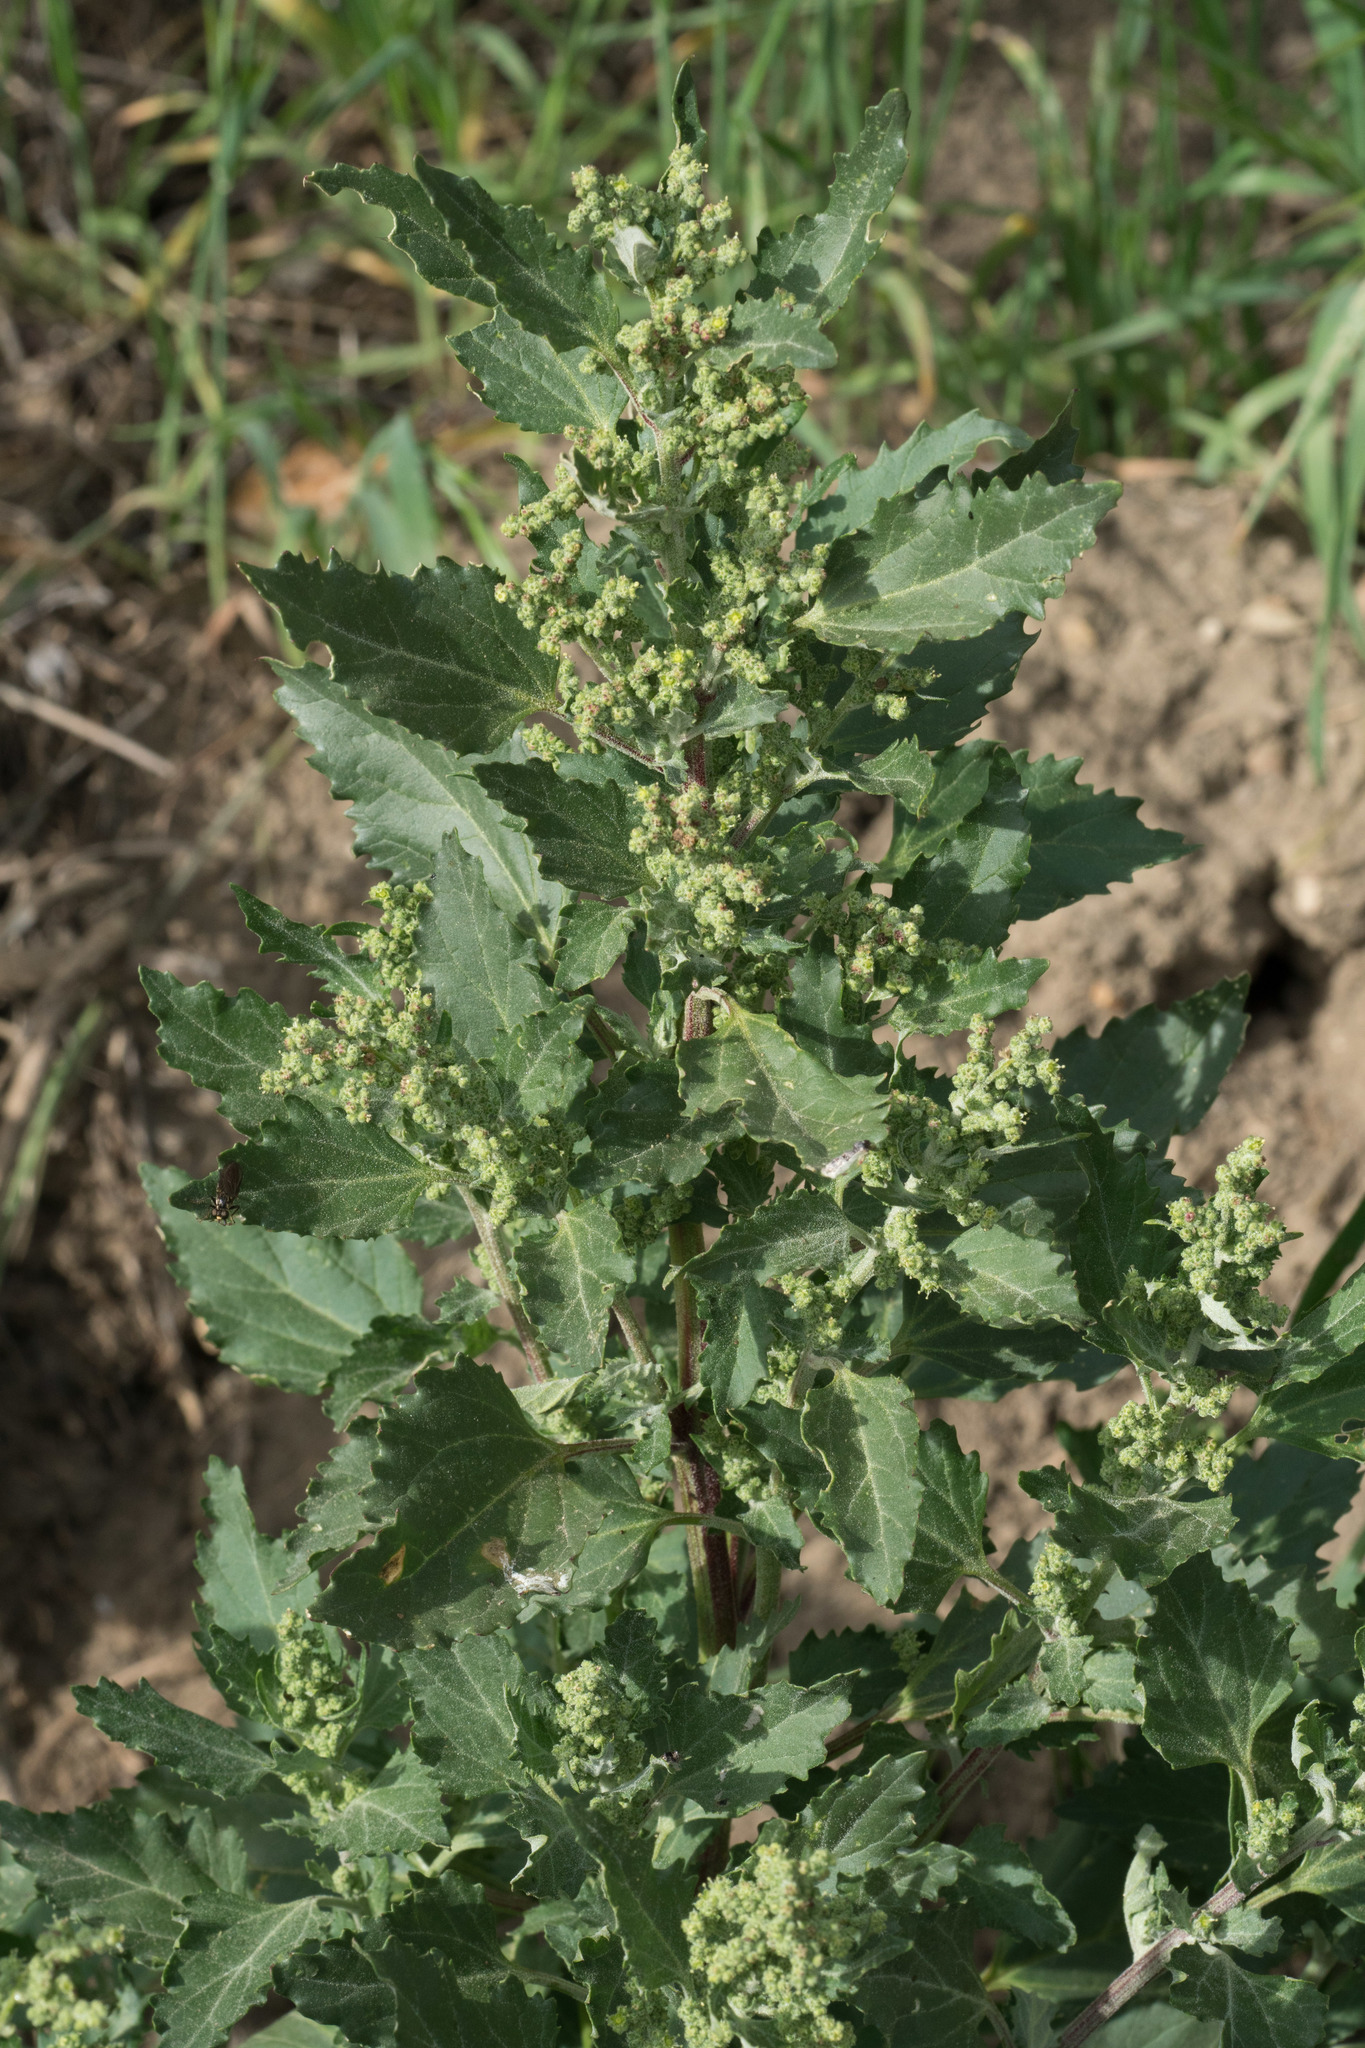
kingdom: Plantae
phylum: Tracheophyta
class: Magnoliopsida
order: Caryophyllales
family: Amaranthaceae
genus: Chenopodiastrum
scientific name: Chenopodiastrum murale
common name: Sowbane
